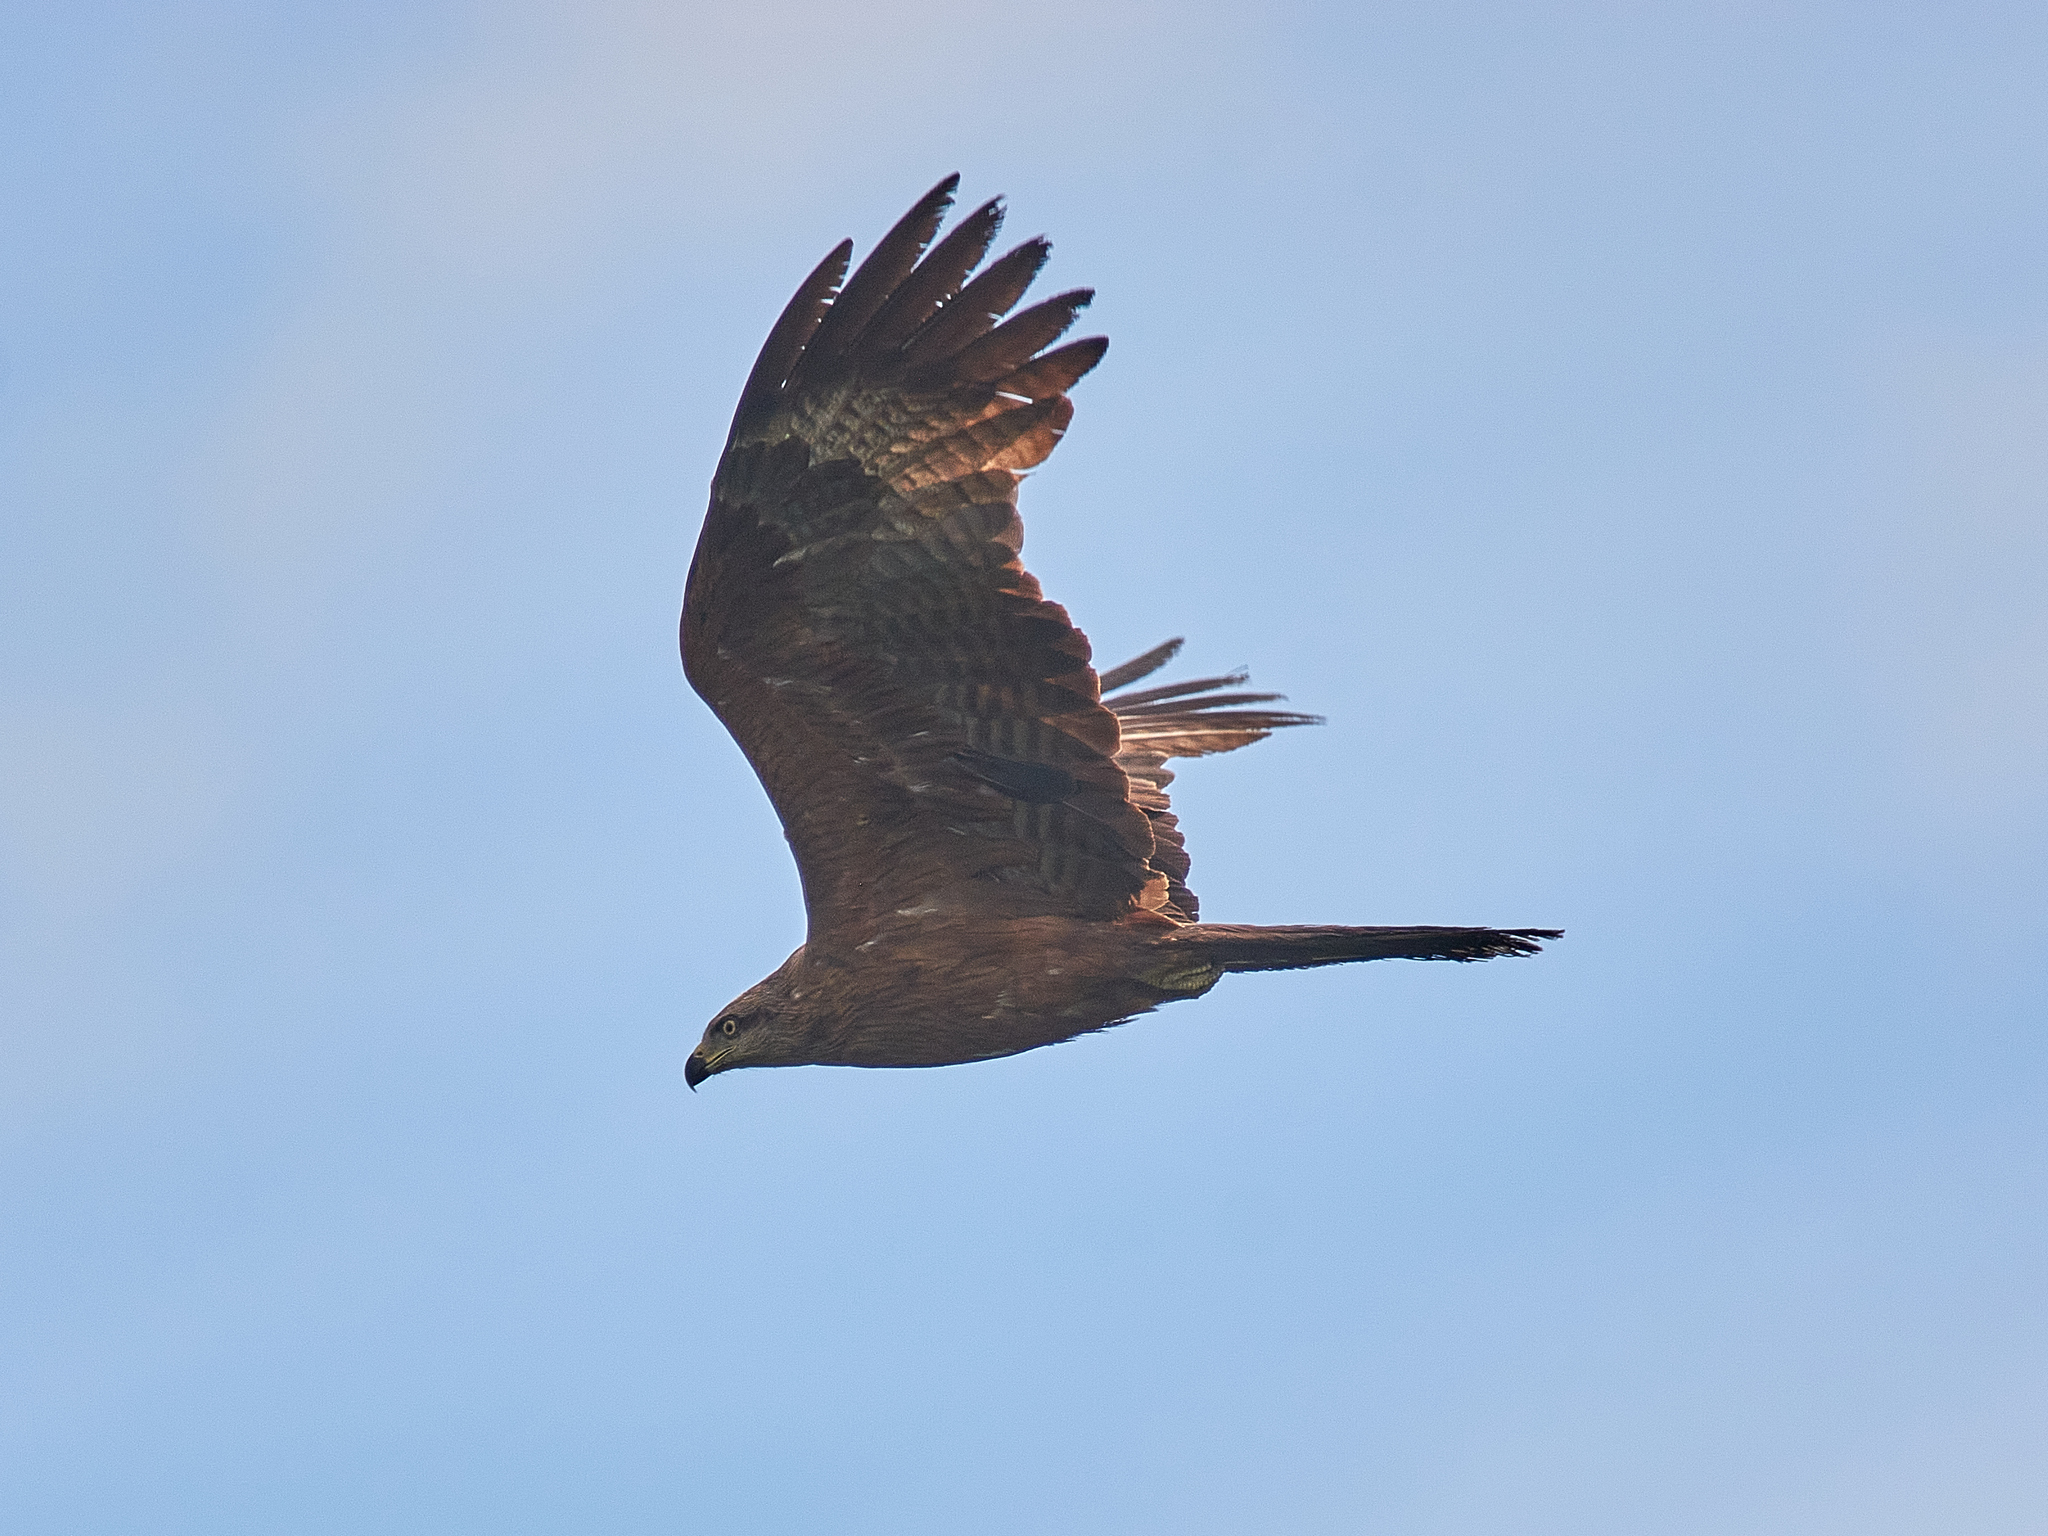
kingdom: Animalia
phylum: Chordata
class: Aves
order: Accipitriformes
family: Accipitridae
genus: Milvus
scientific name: Milvus migrans
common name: Black kite
